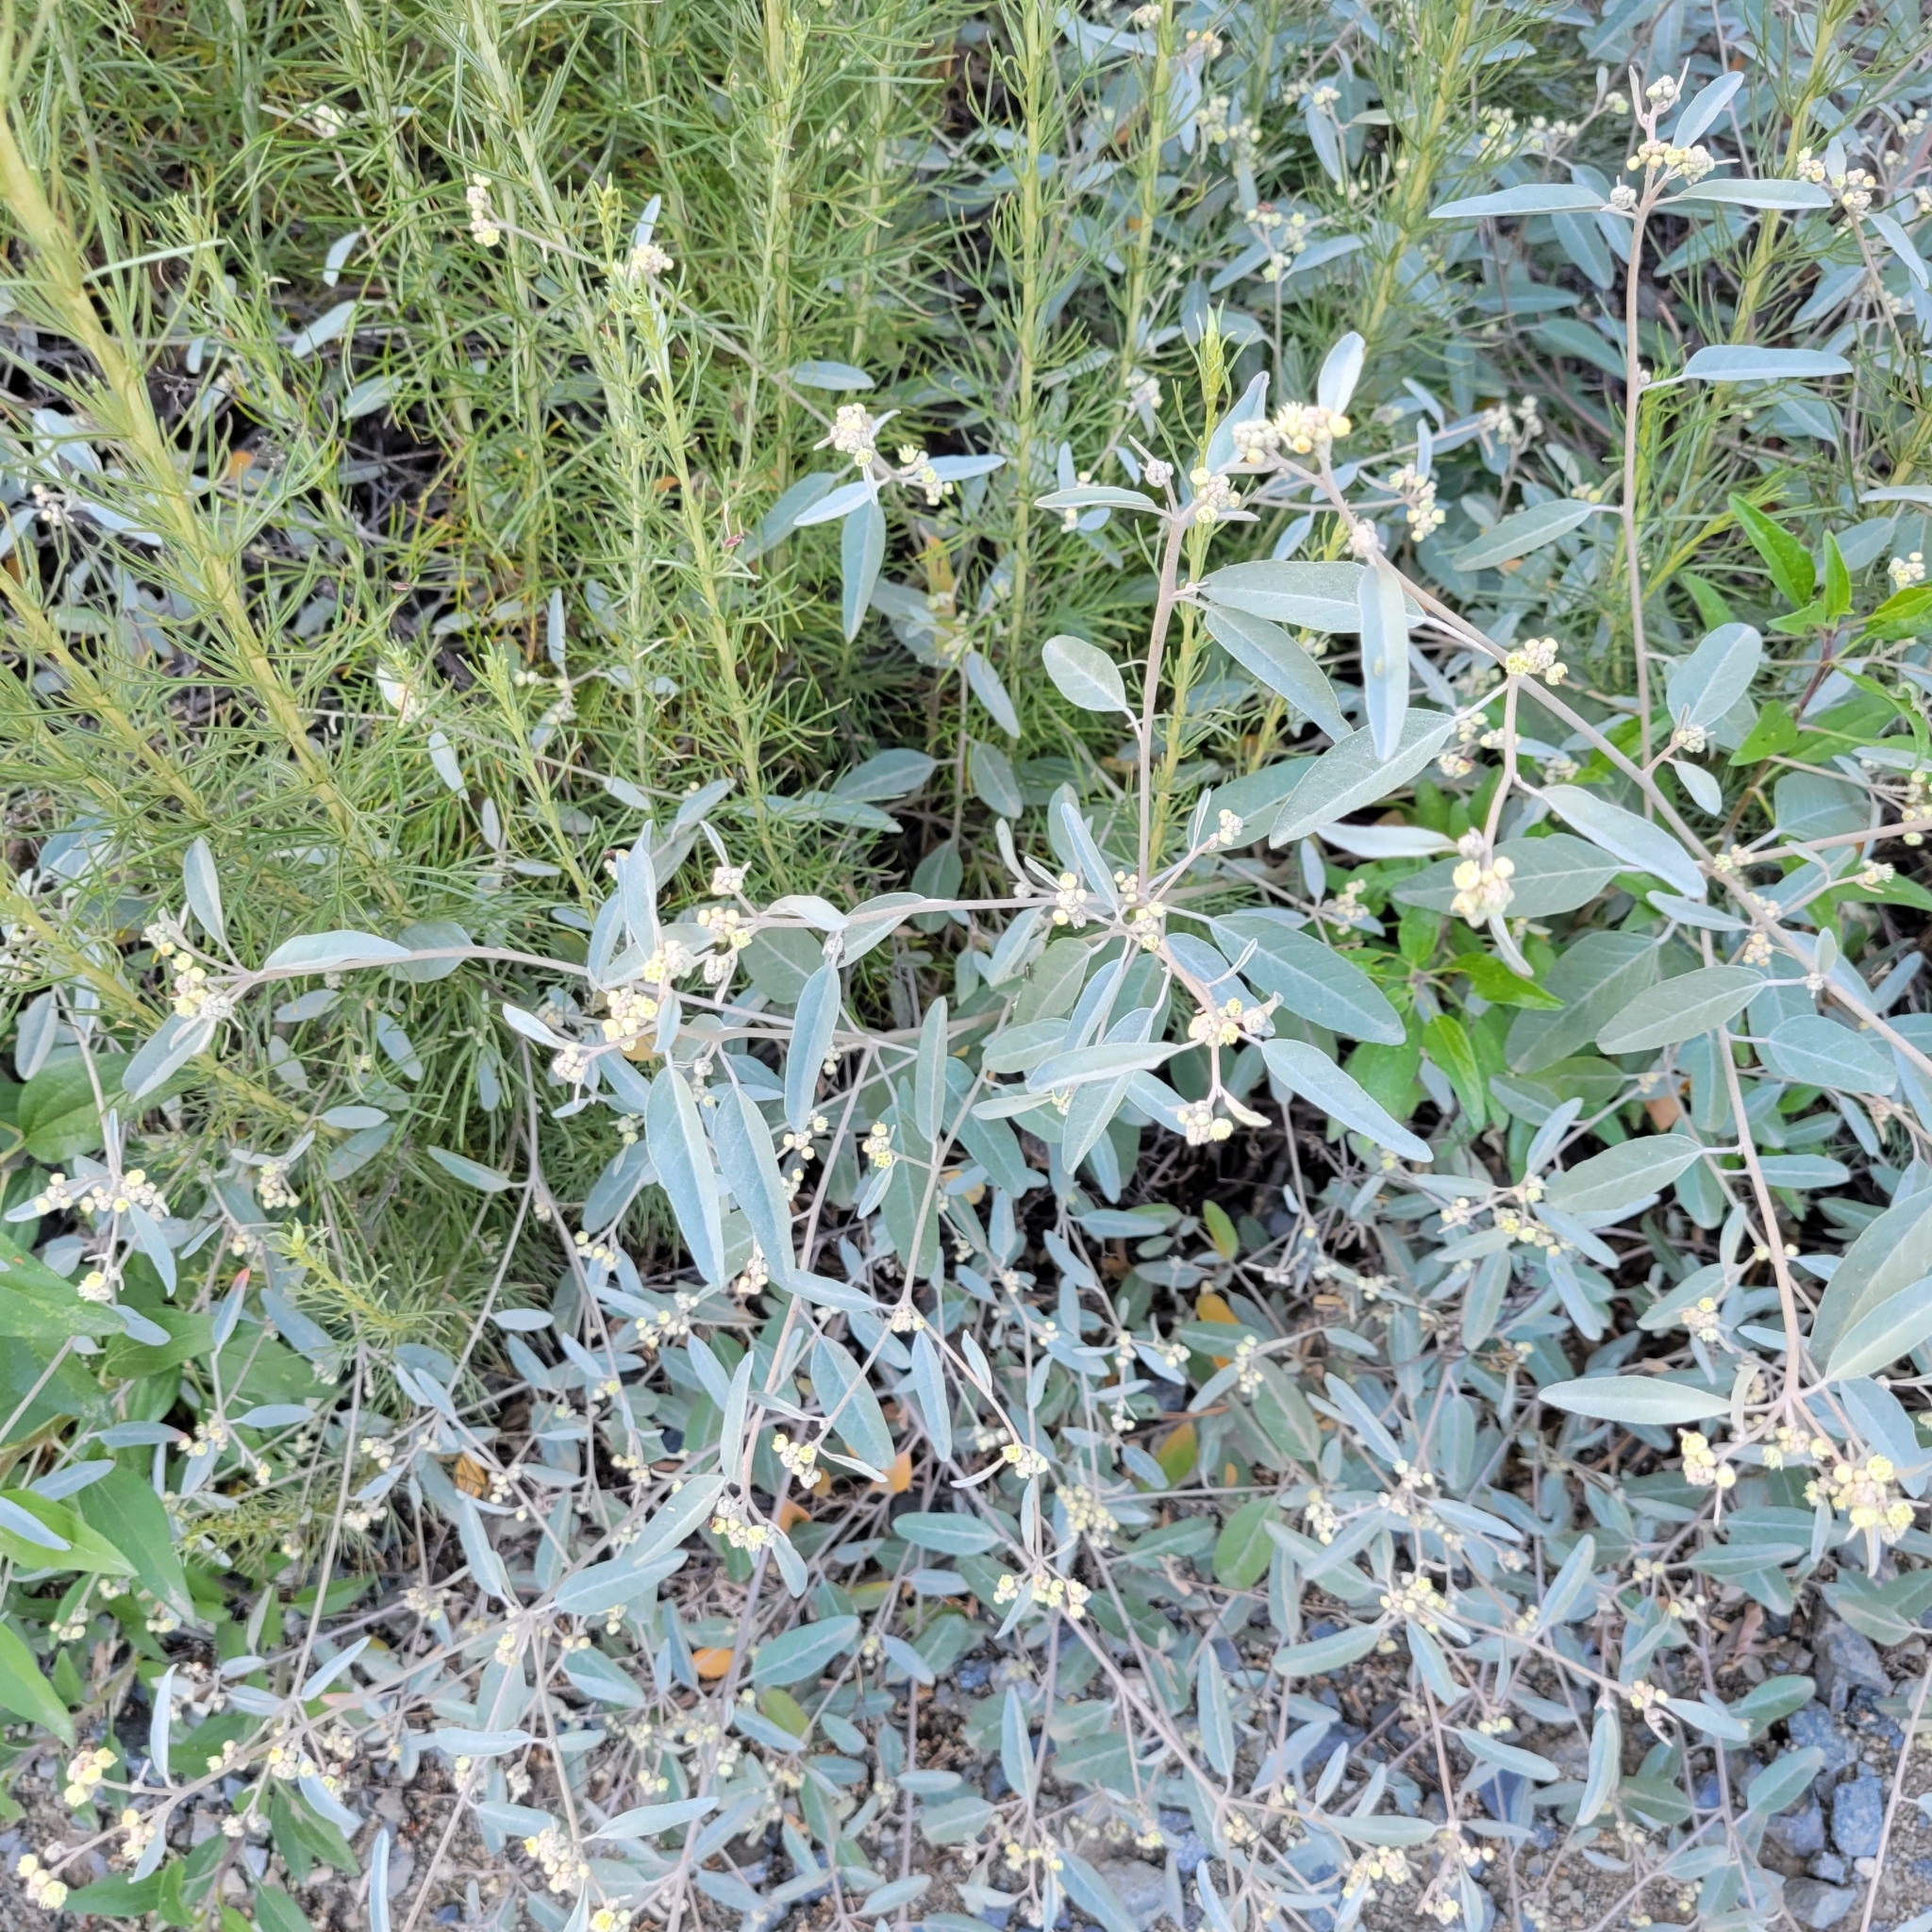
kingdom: Plantae
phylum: Tracheophyta
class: Magnoliopsida
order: Malpighiales
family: Euphorbiaceae
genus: Croton
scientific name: Croton californicus
